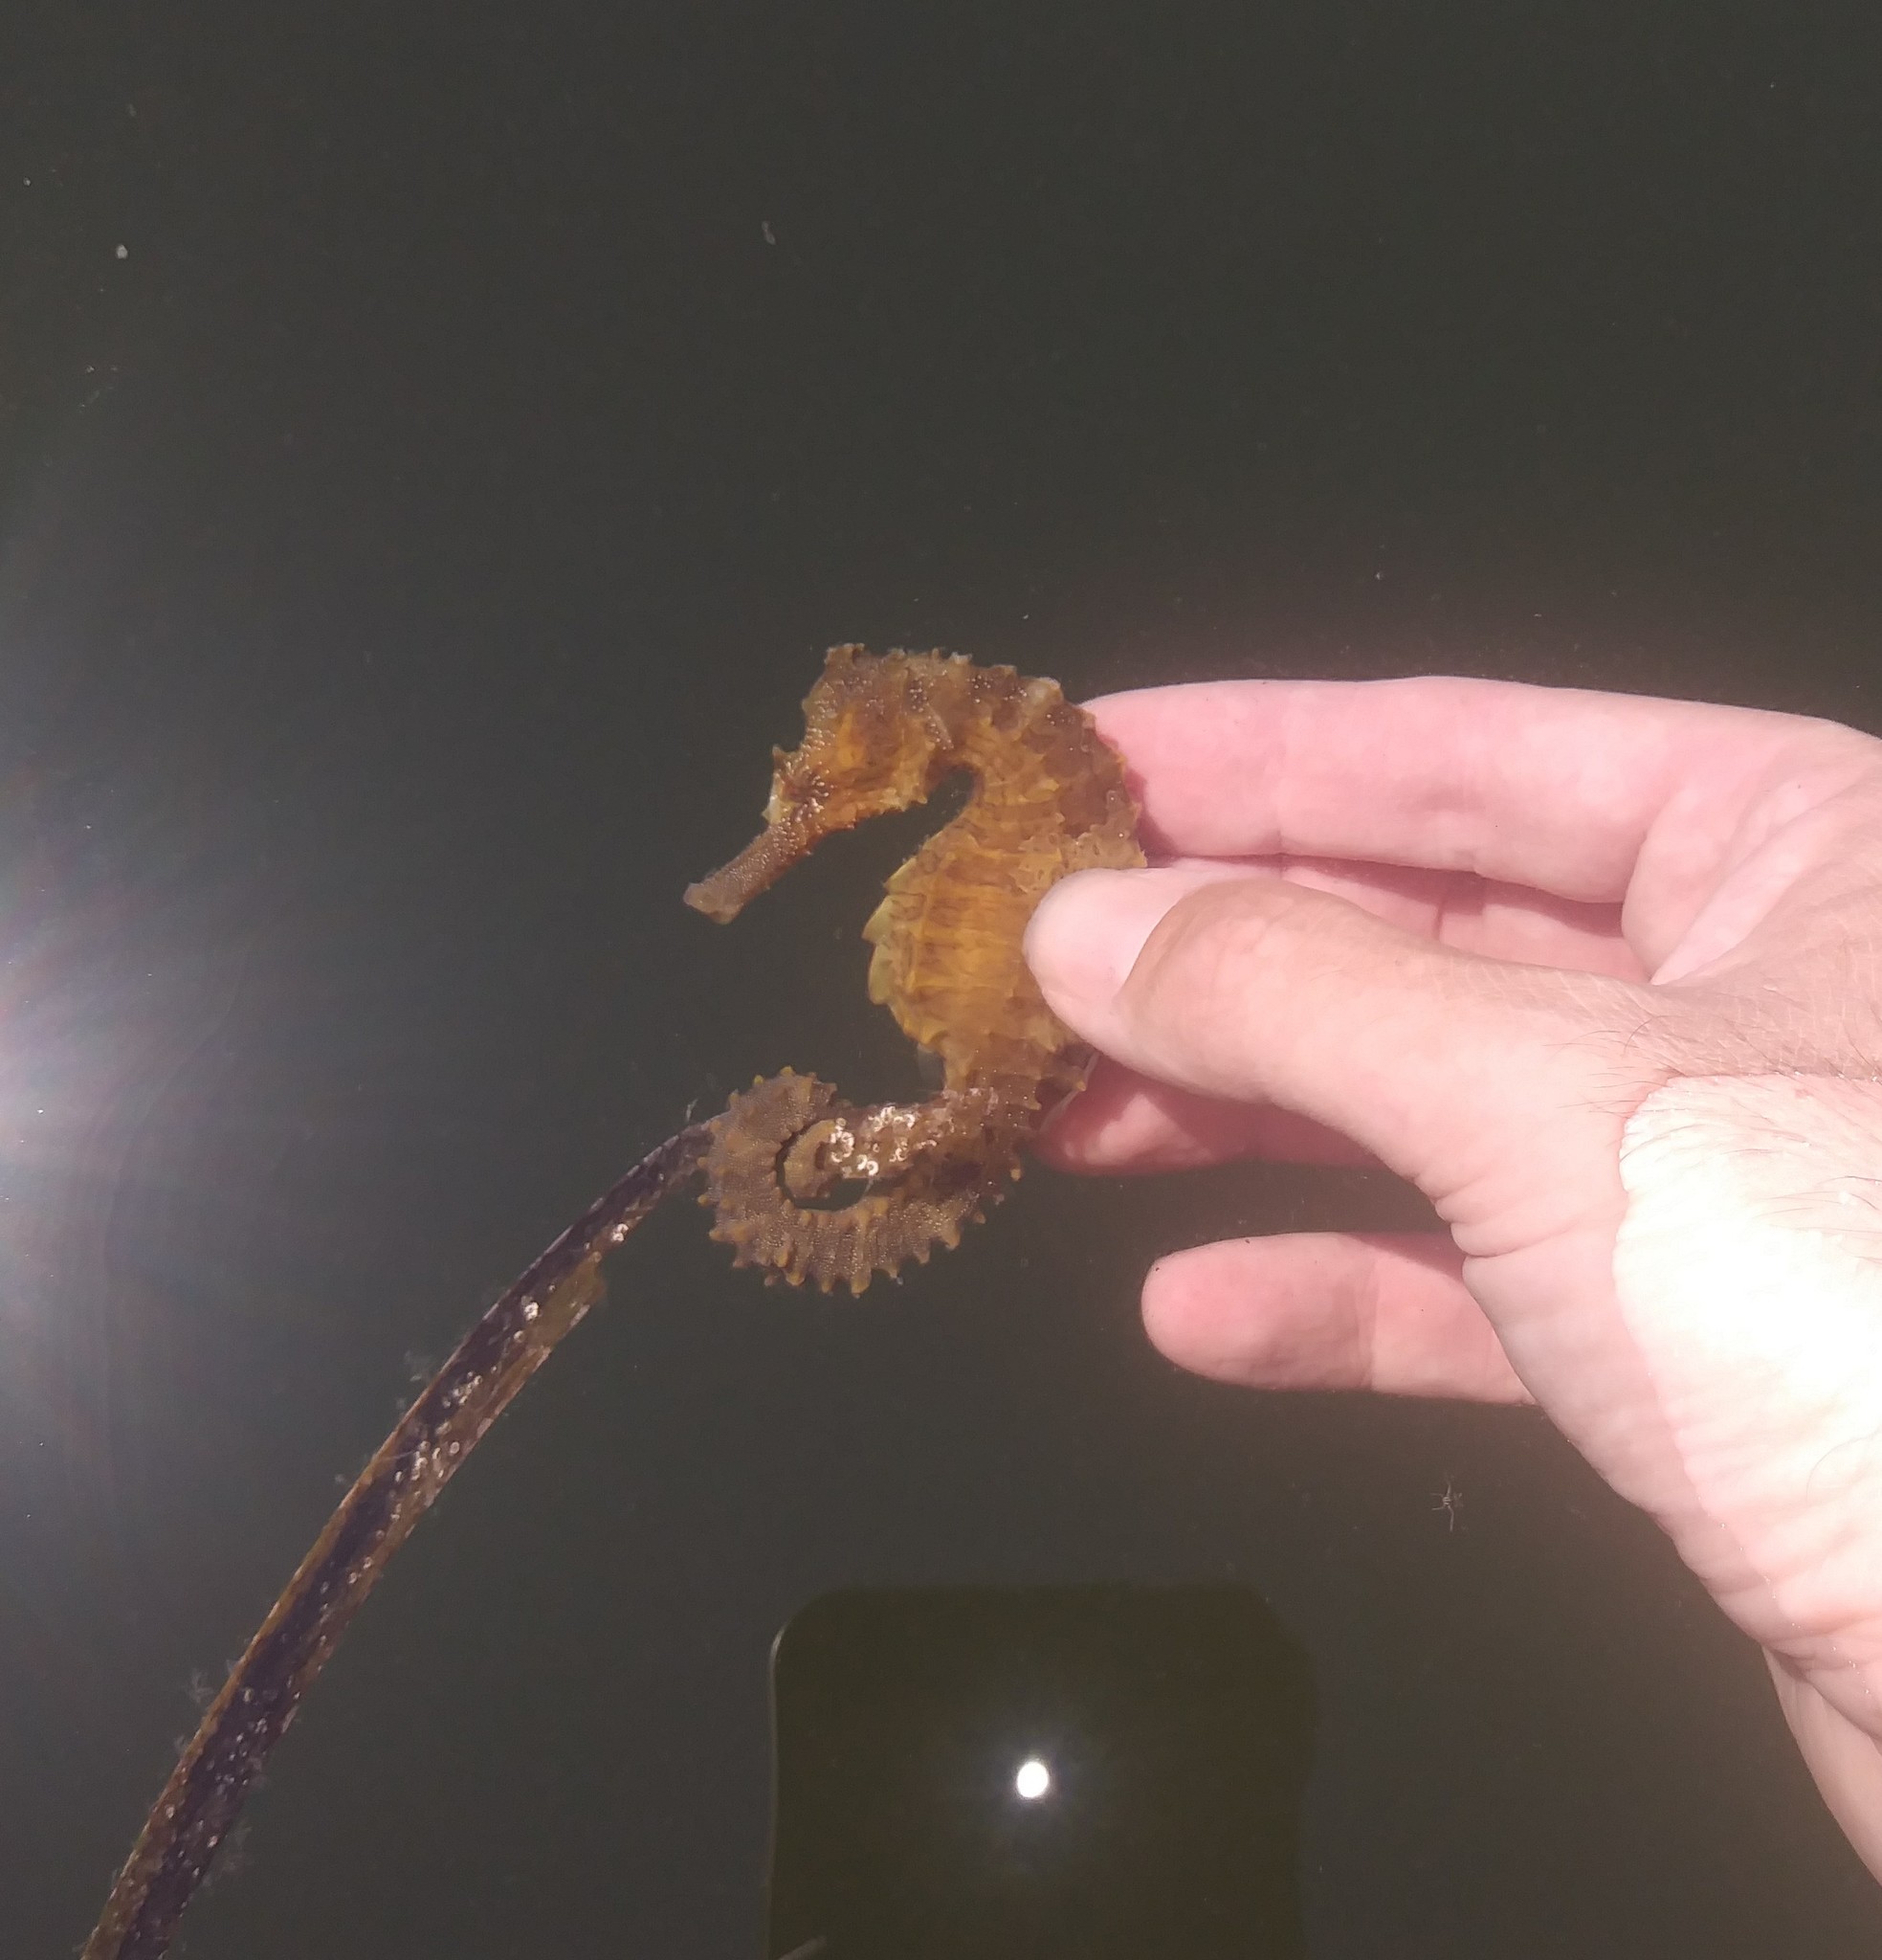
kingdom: Animalia
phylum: Chordata
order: Syngnathiformes
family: Syngnathidae
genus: Hippocampus
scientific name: Hippocampus erectus
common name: Lined seahorse
